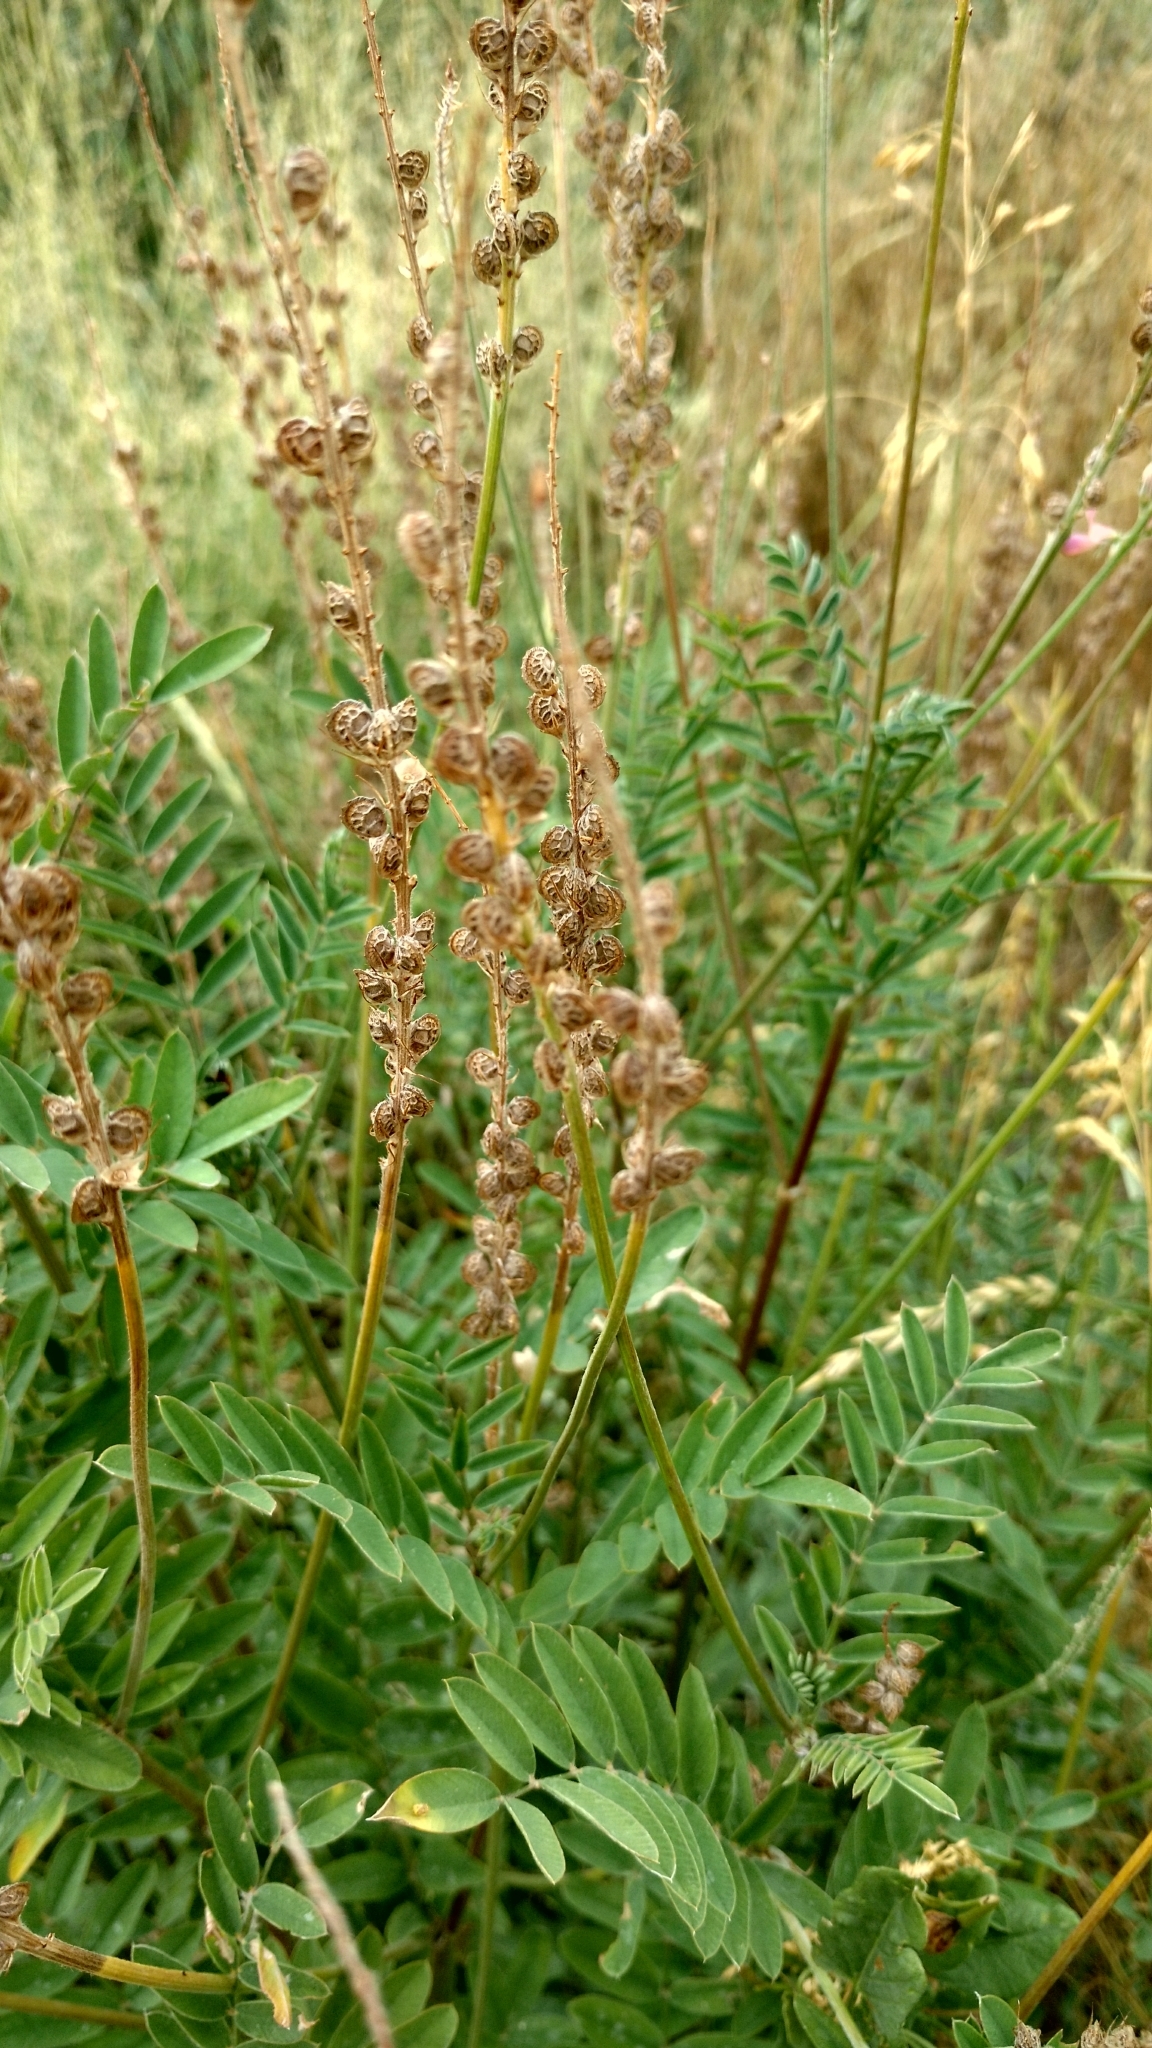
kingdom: Plantae
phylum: Tracheophyta
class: Magnoliopsida
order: Fabales
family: Fabaceae
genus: Onobrychis
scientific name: Onobrychis viciifolia
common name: Sainfoin
